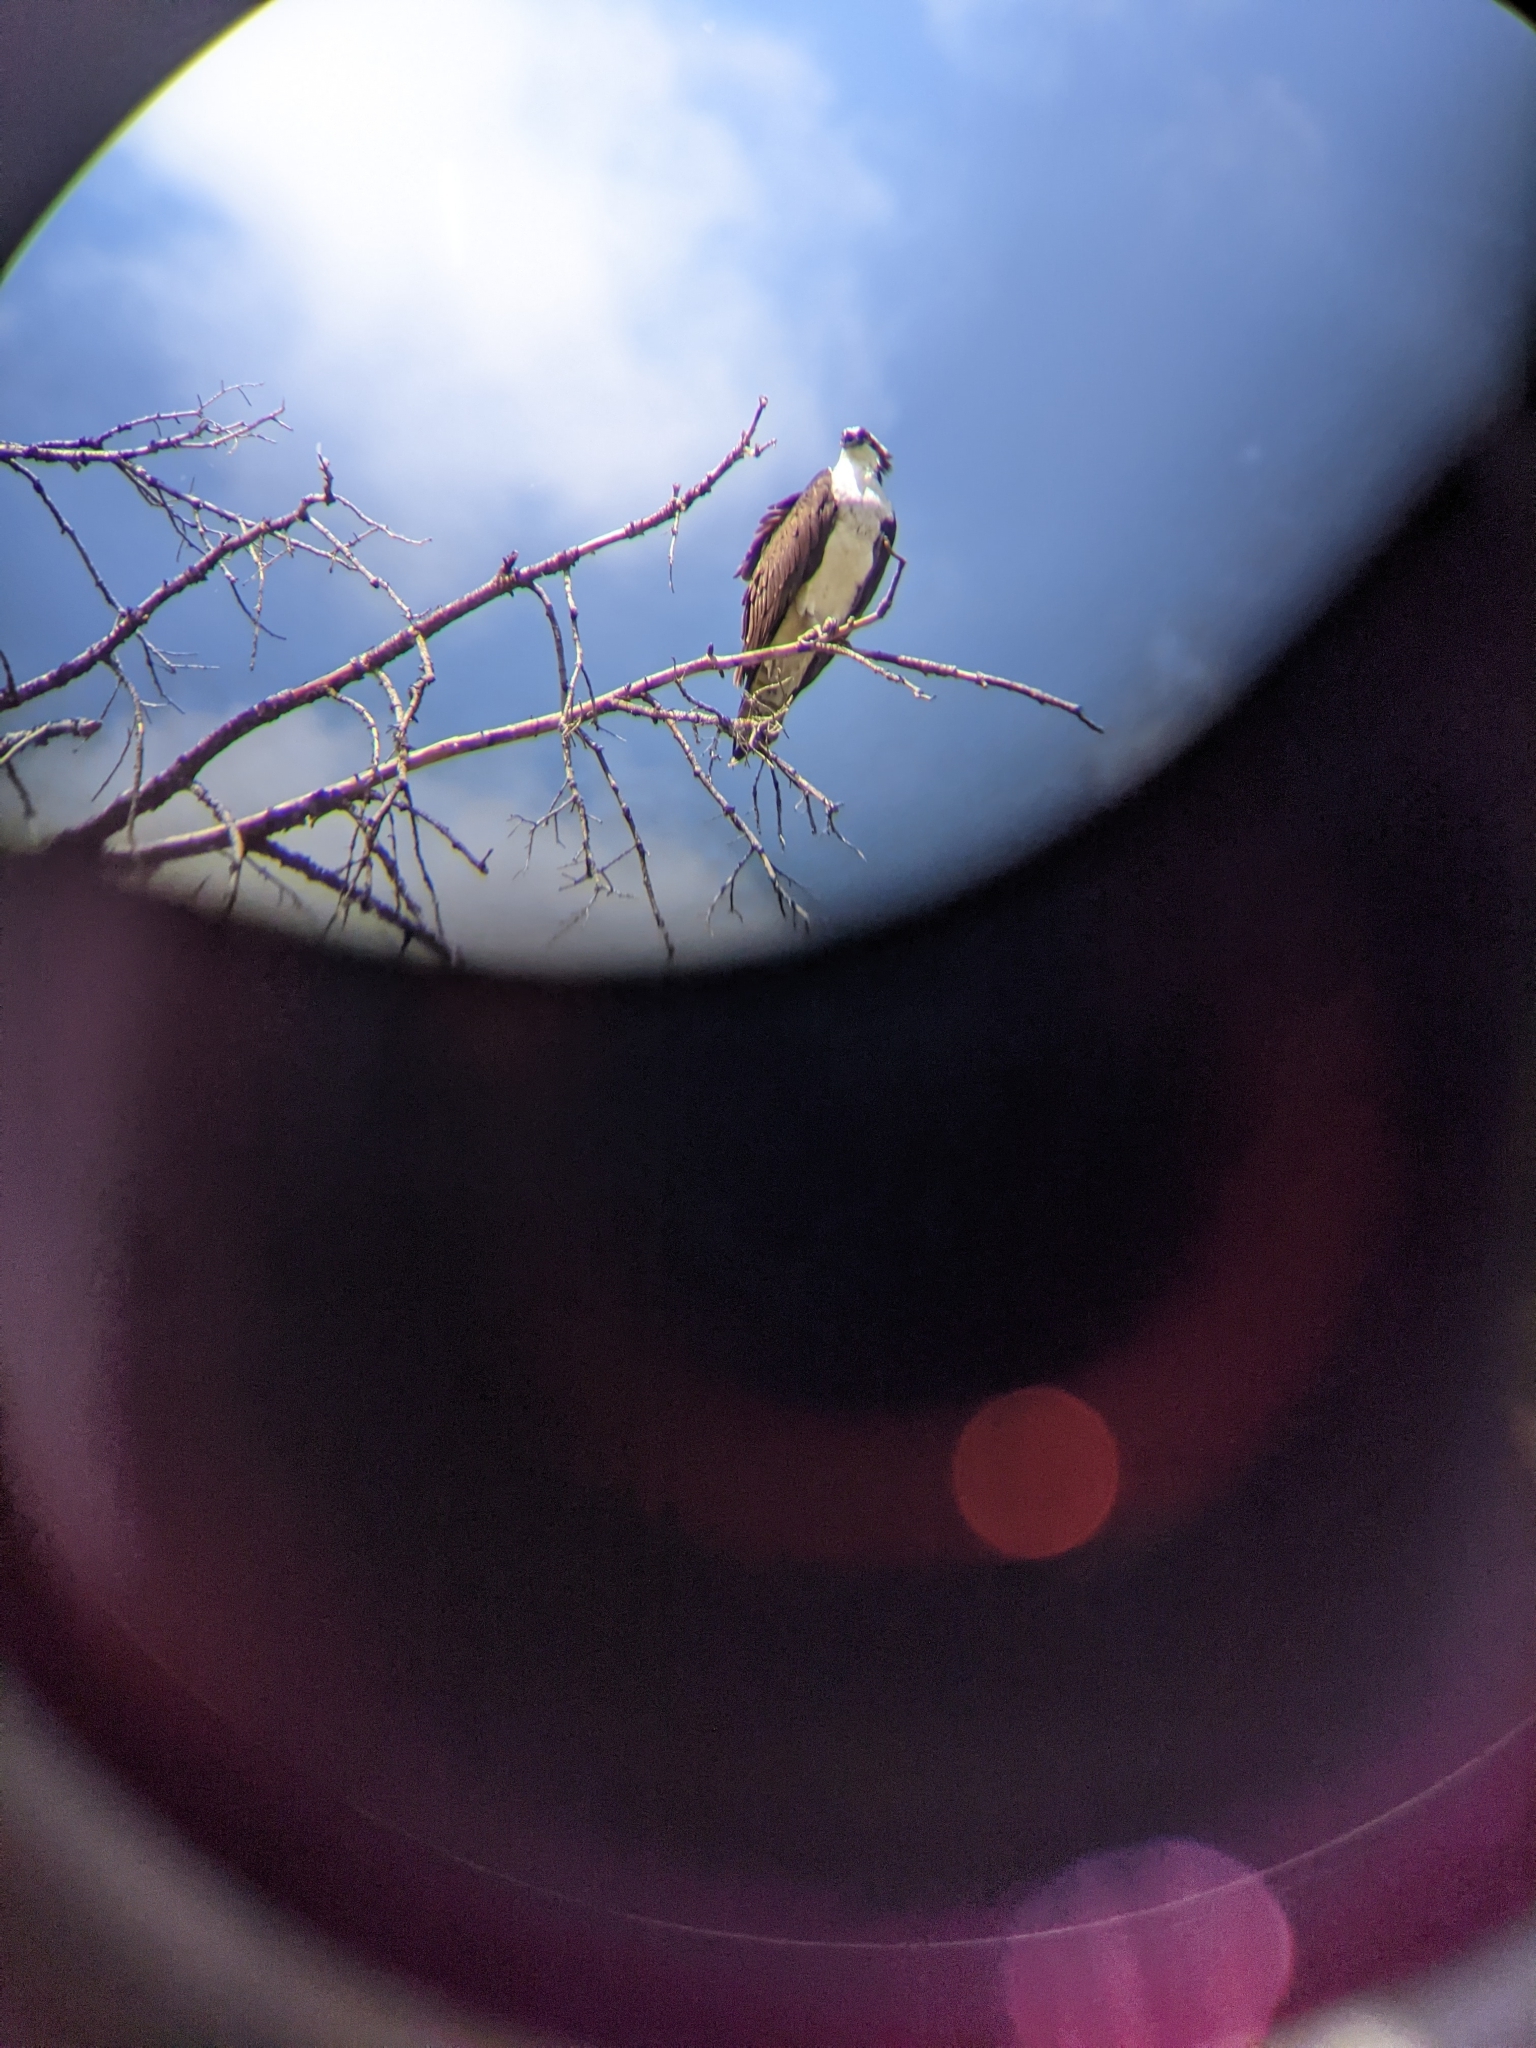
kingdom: Animalia
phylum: Chordata
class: Aves
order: Accipitriformes
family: Pandionidae
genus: Pandion
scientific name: Pandion haliaetus
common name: Osprey
